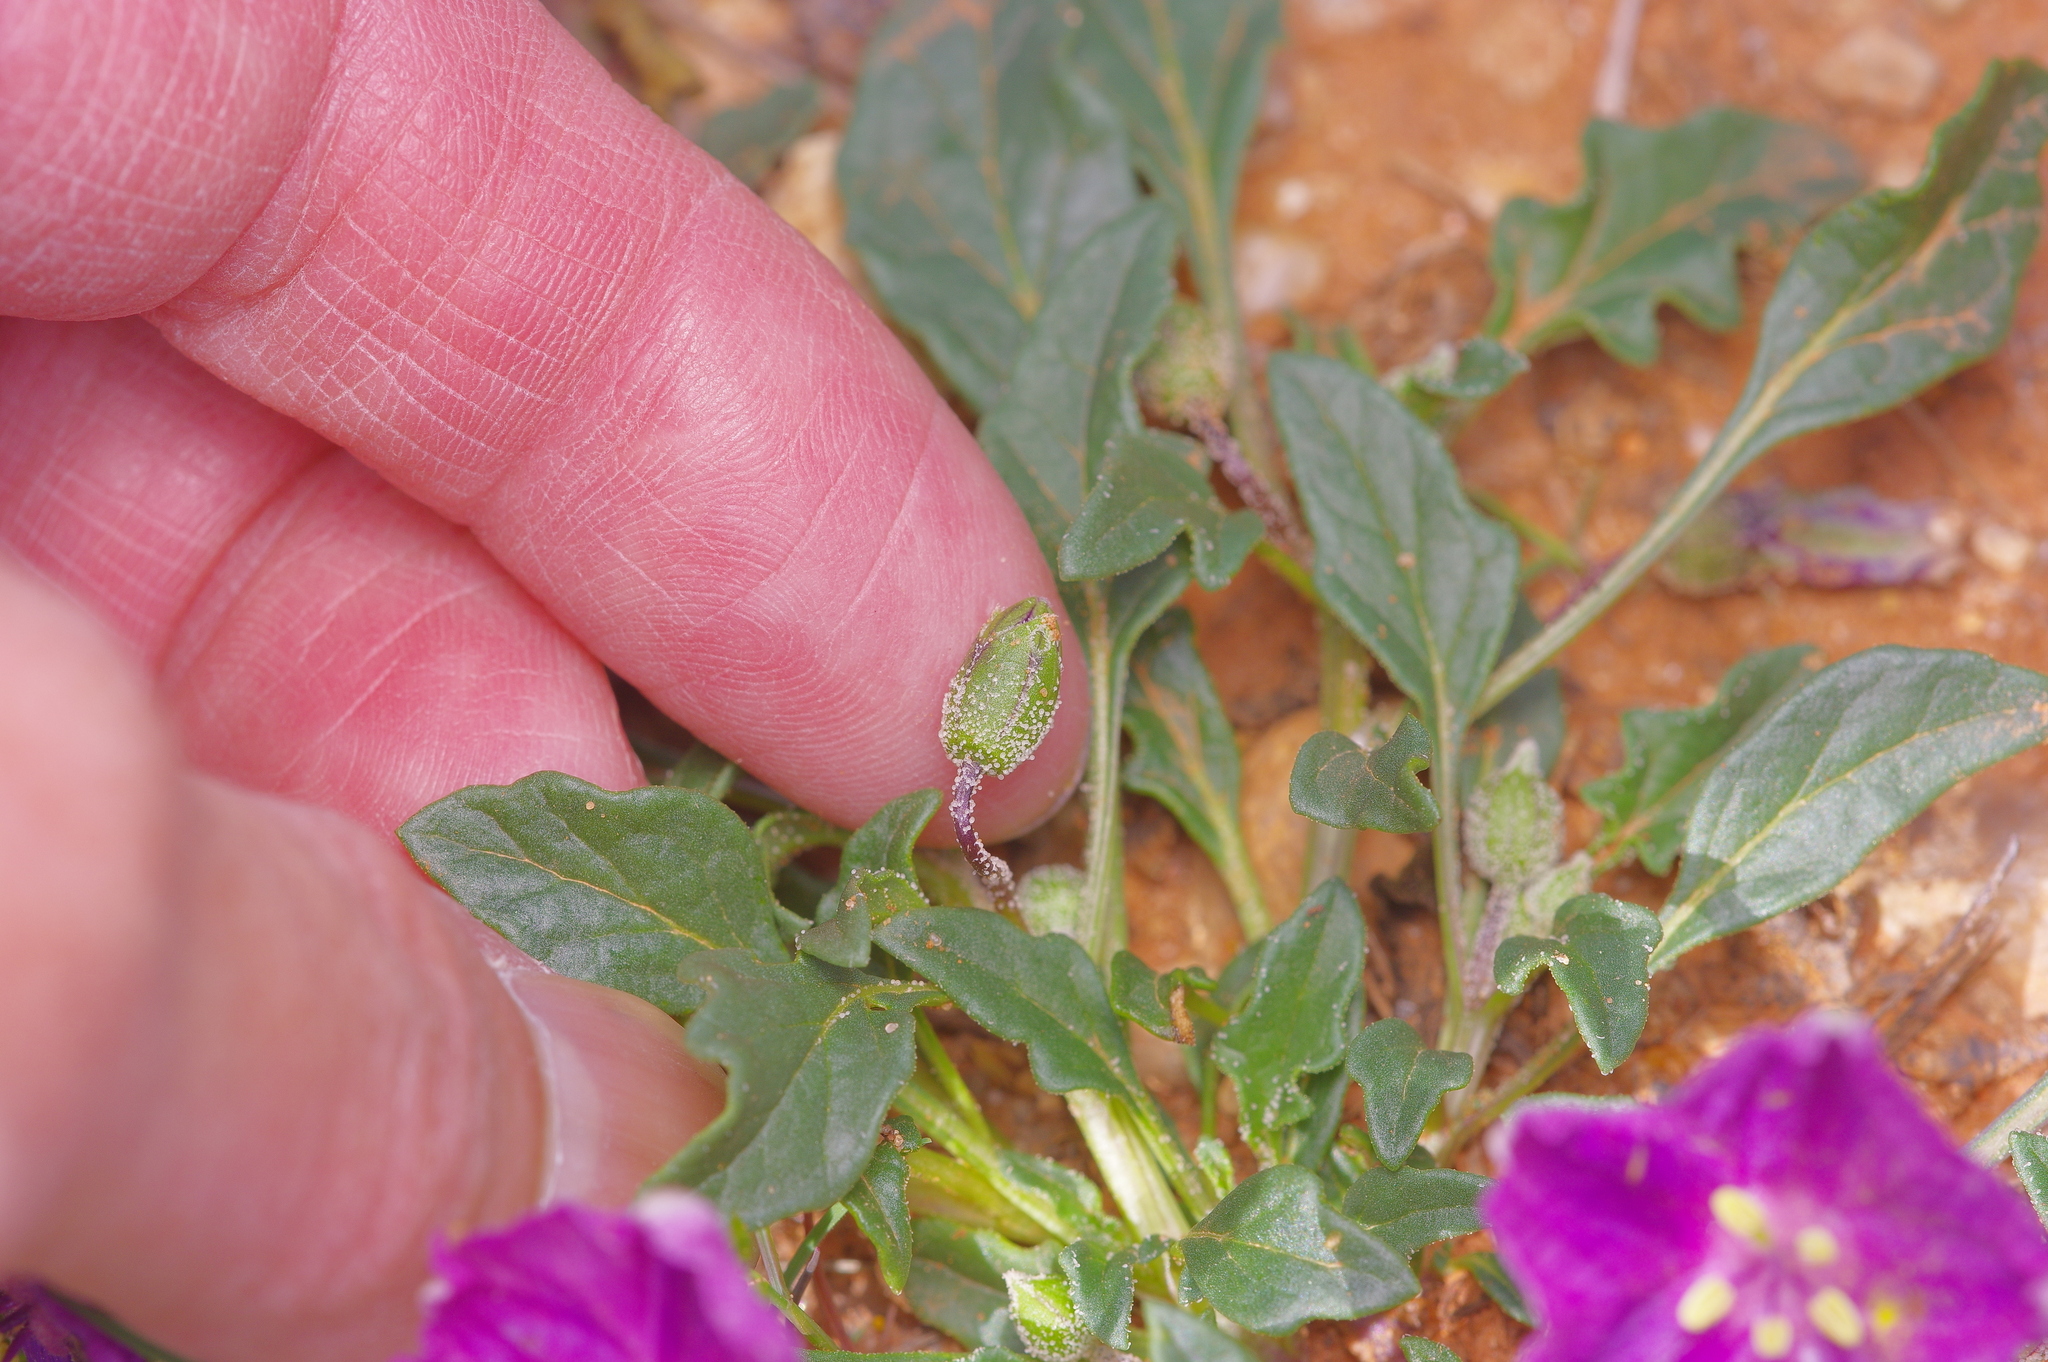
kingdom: Plantae
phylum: Tracheophyta
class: Magnoliopsida
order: Solanales
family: Solanaceae
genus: Quincula
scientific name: Quincula lobata
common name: Purple-ground-cherry
